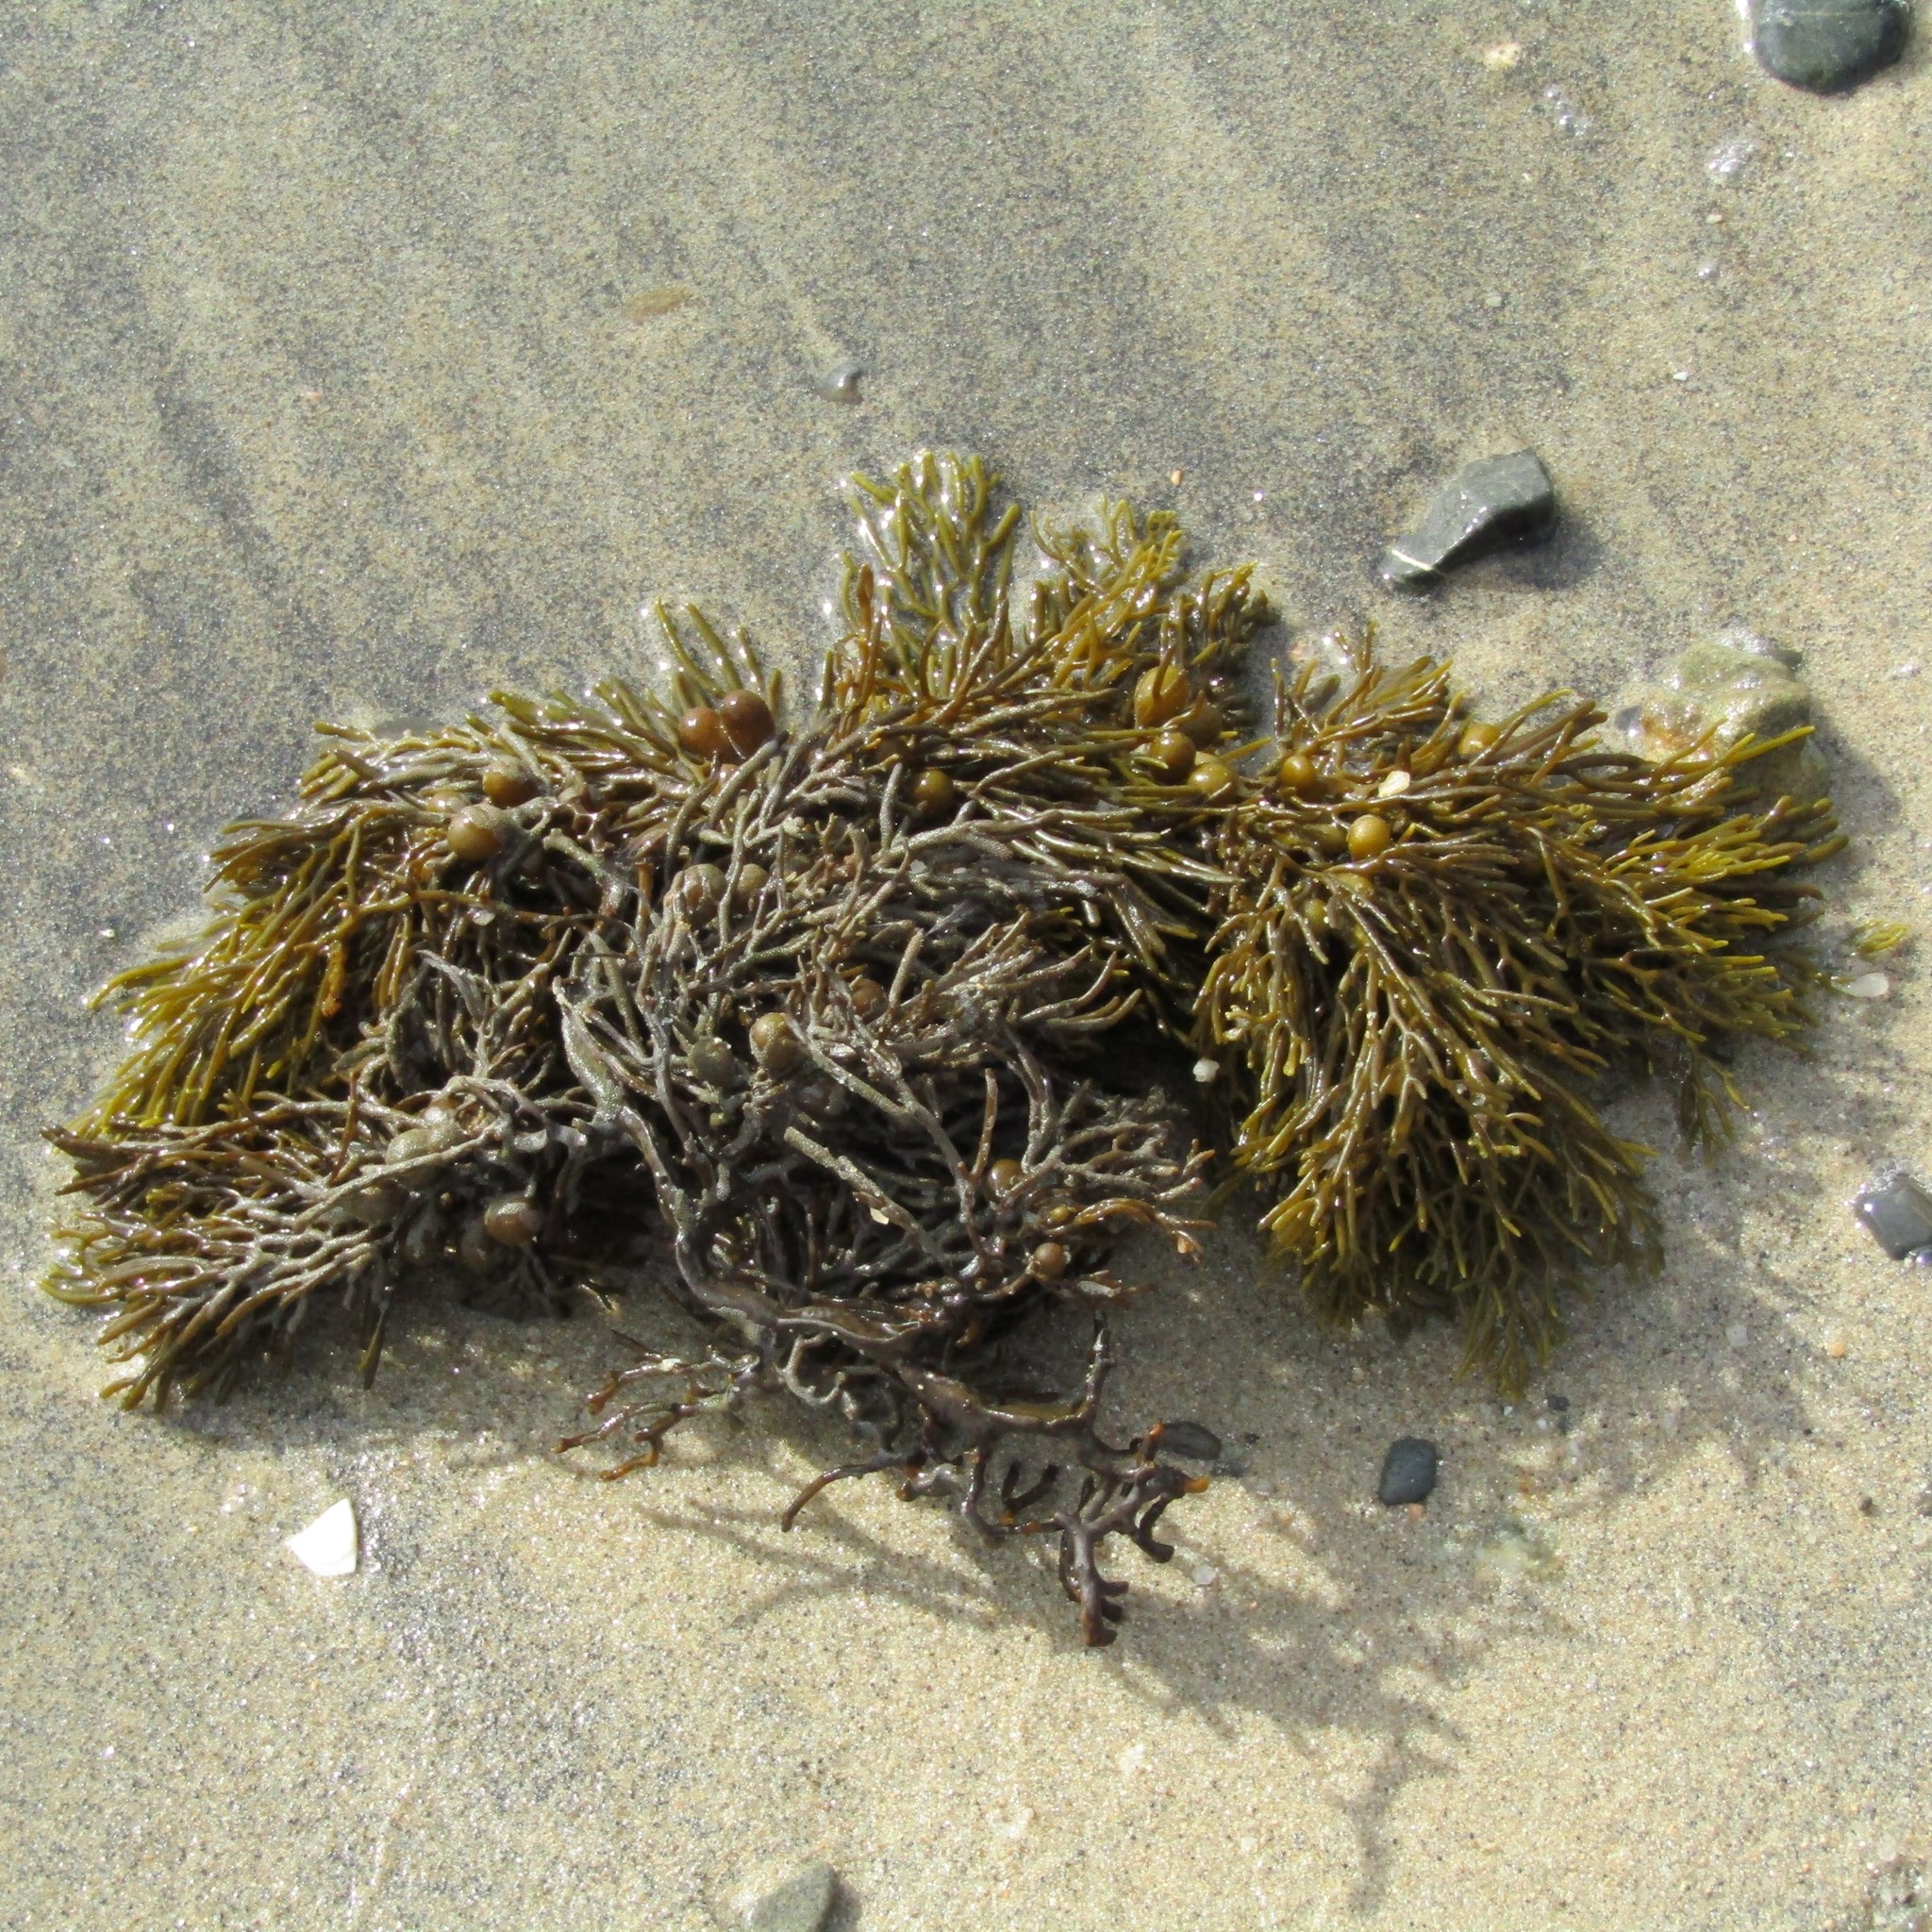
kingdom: Chromista
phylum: Ochrophyta
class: Phaeophyceae
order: Fucales
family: Sargassaceae
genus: Cystophora
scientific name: Cystophora scalaris
